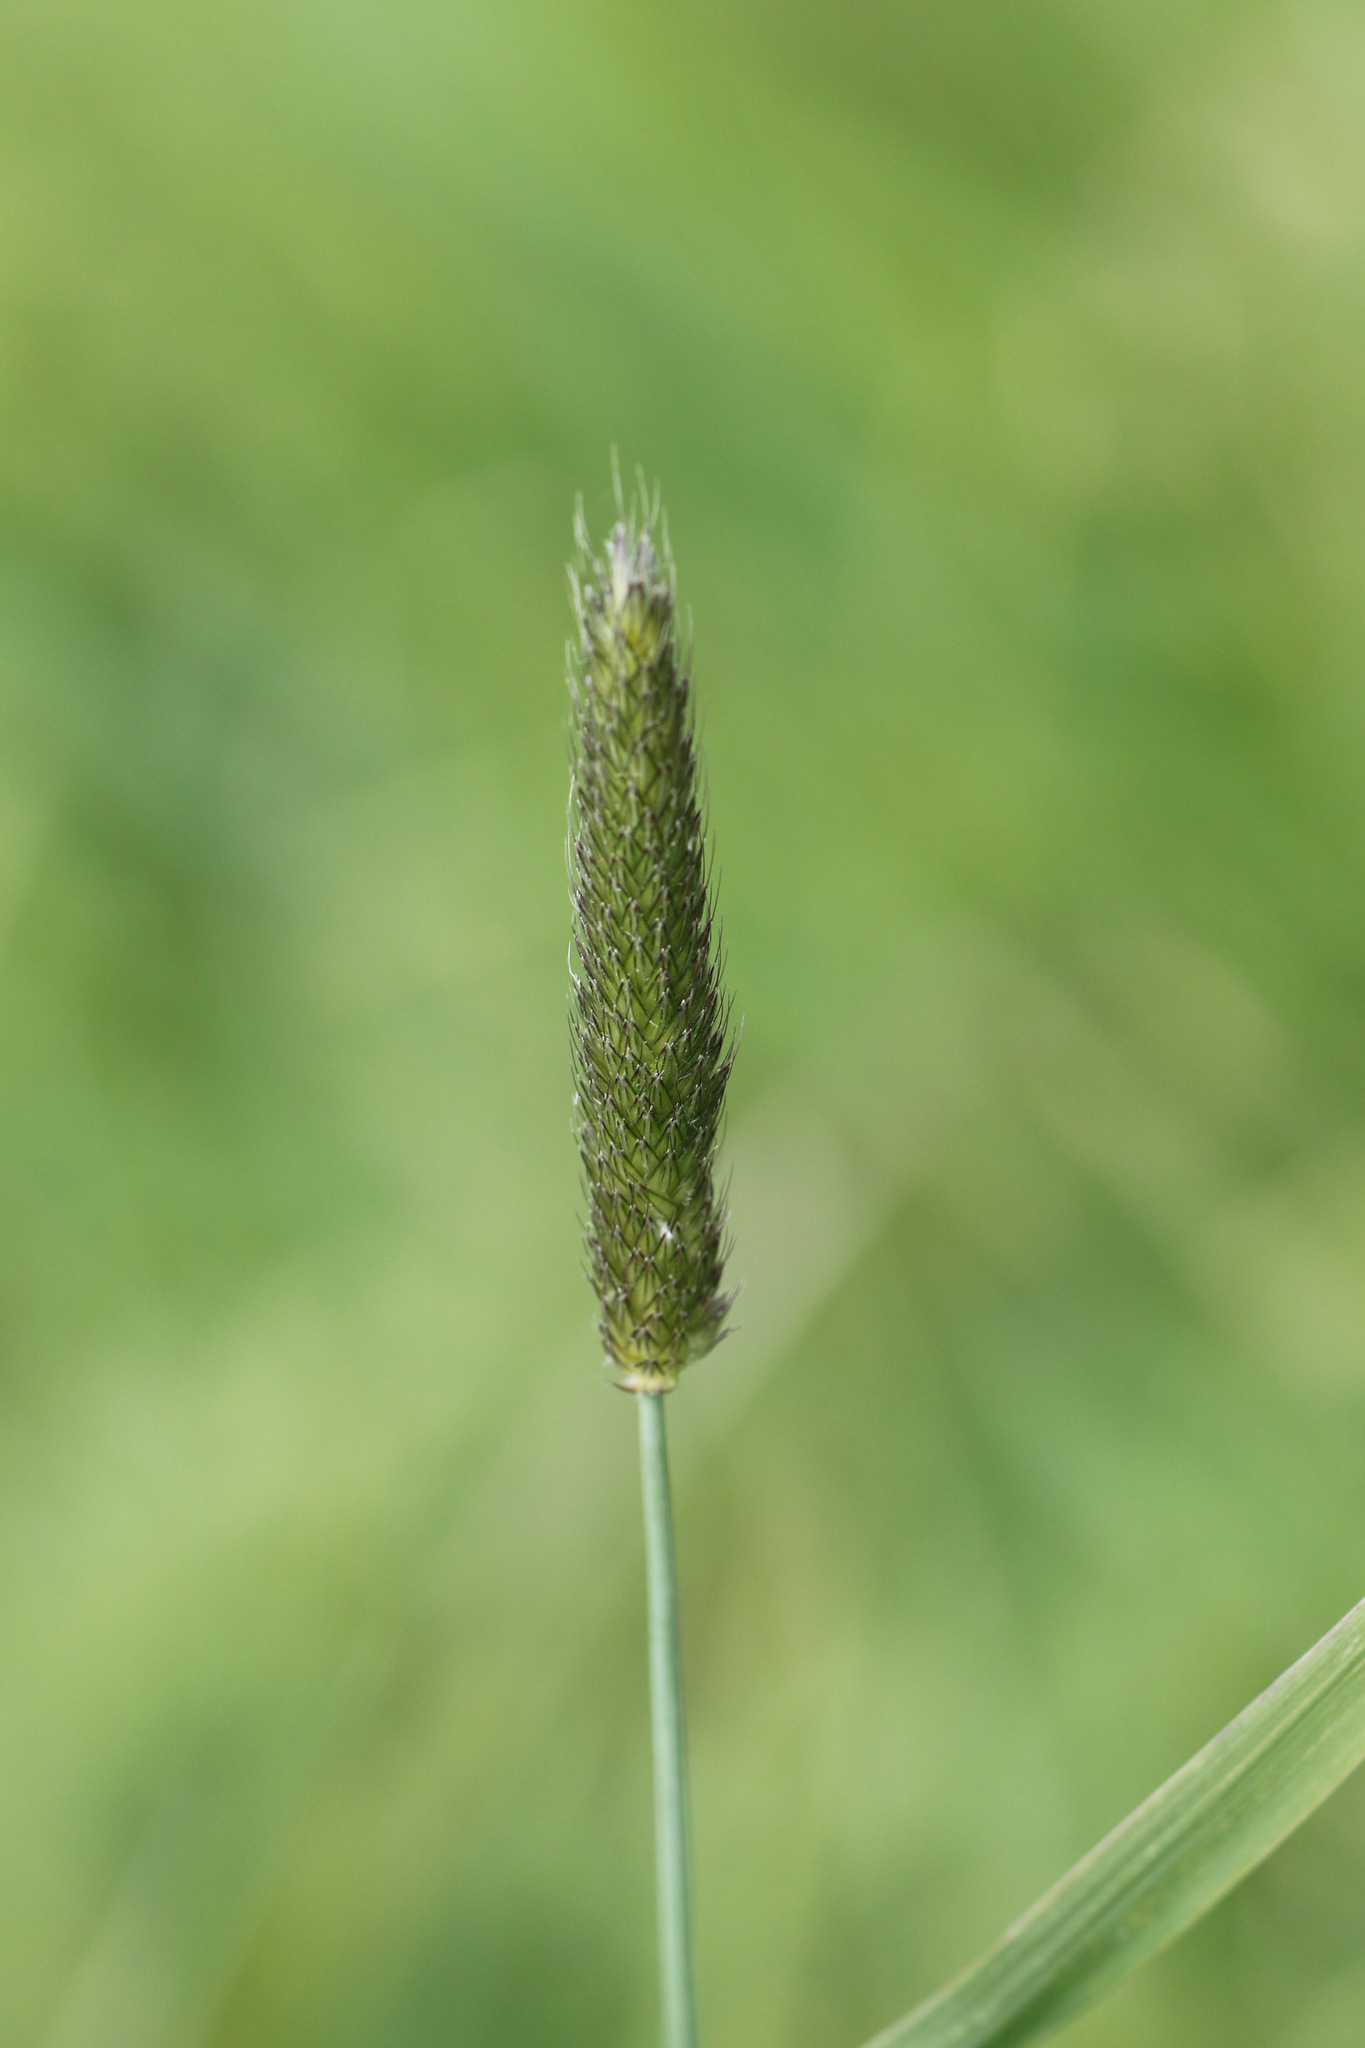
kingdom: Plantae
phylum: Tracheophyta
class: Liliopsida
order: Poales
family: Poaceae
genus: Alopecurus
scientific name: Alopecurus pratensis
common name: Meadow foxtail
